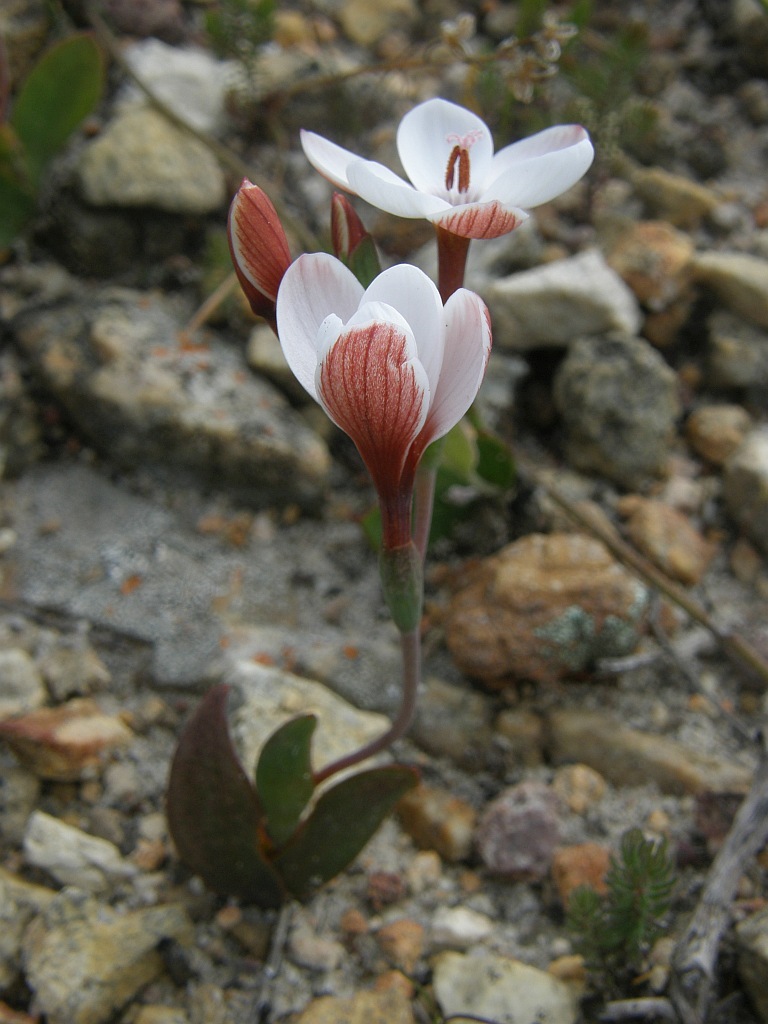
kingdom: Plantae
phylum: Tracheophyta
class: Liliopsida
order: Asparagales
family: Iridaceae
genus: Geissorhiza
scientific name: Geissorhiza ovata
